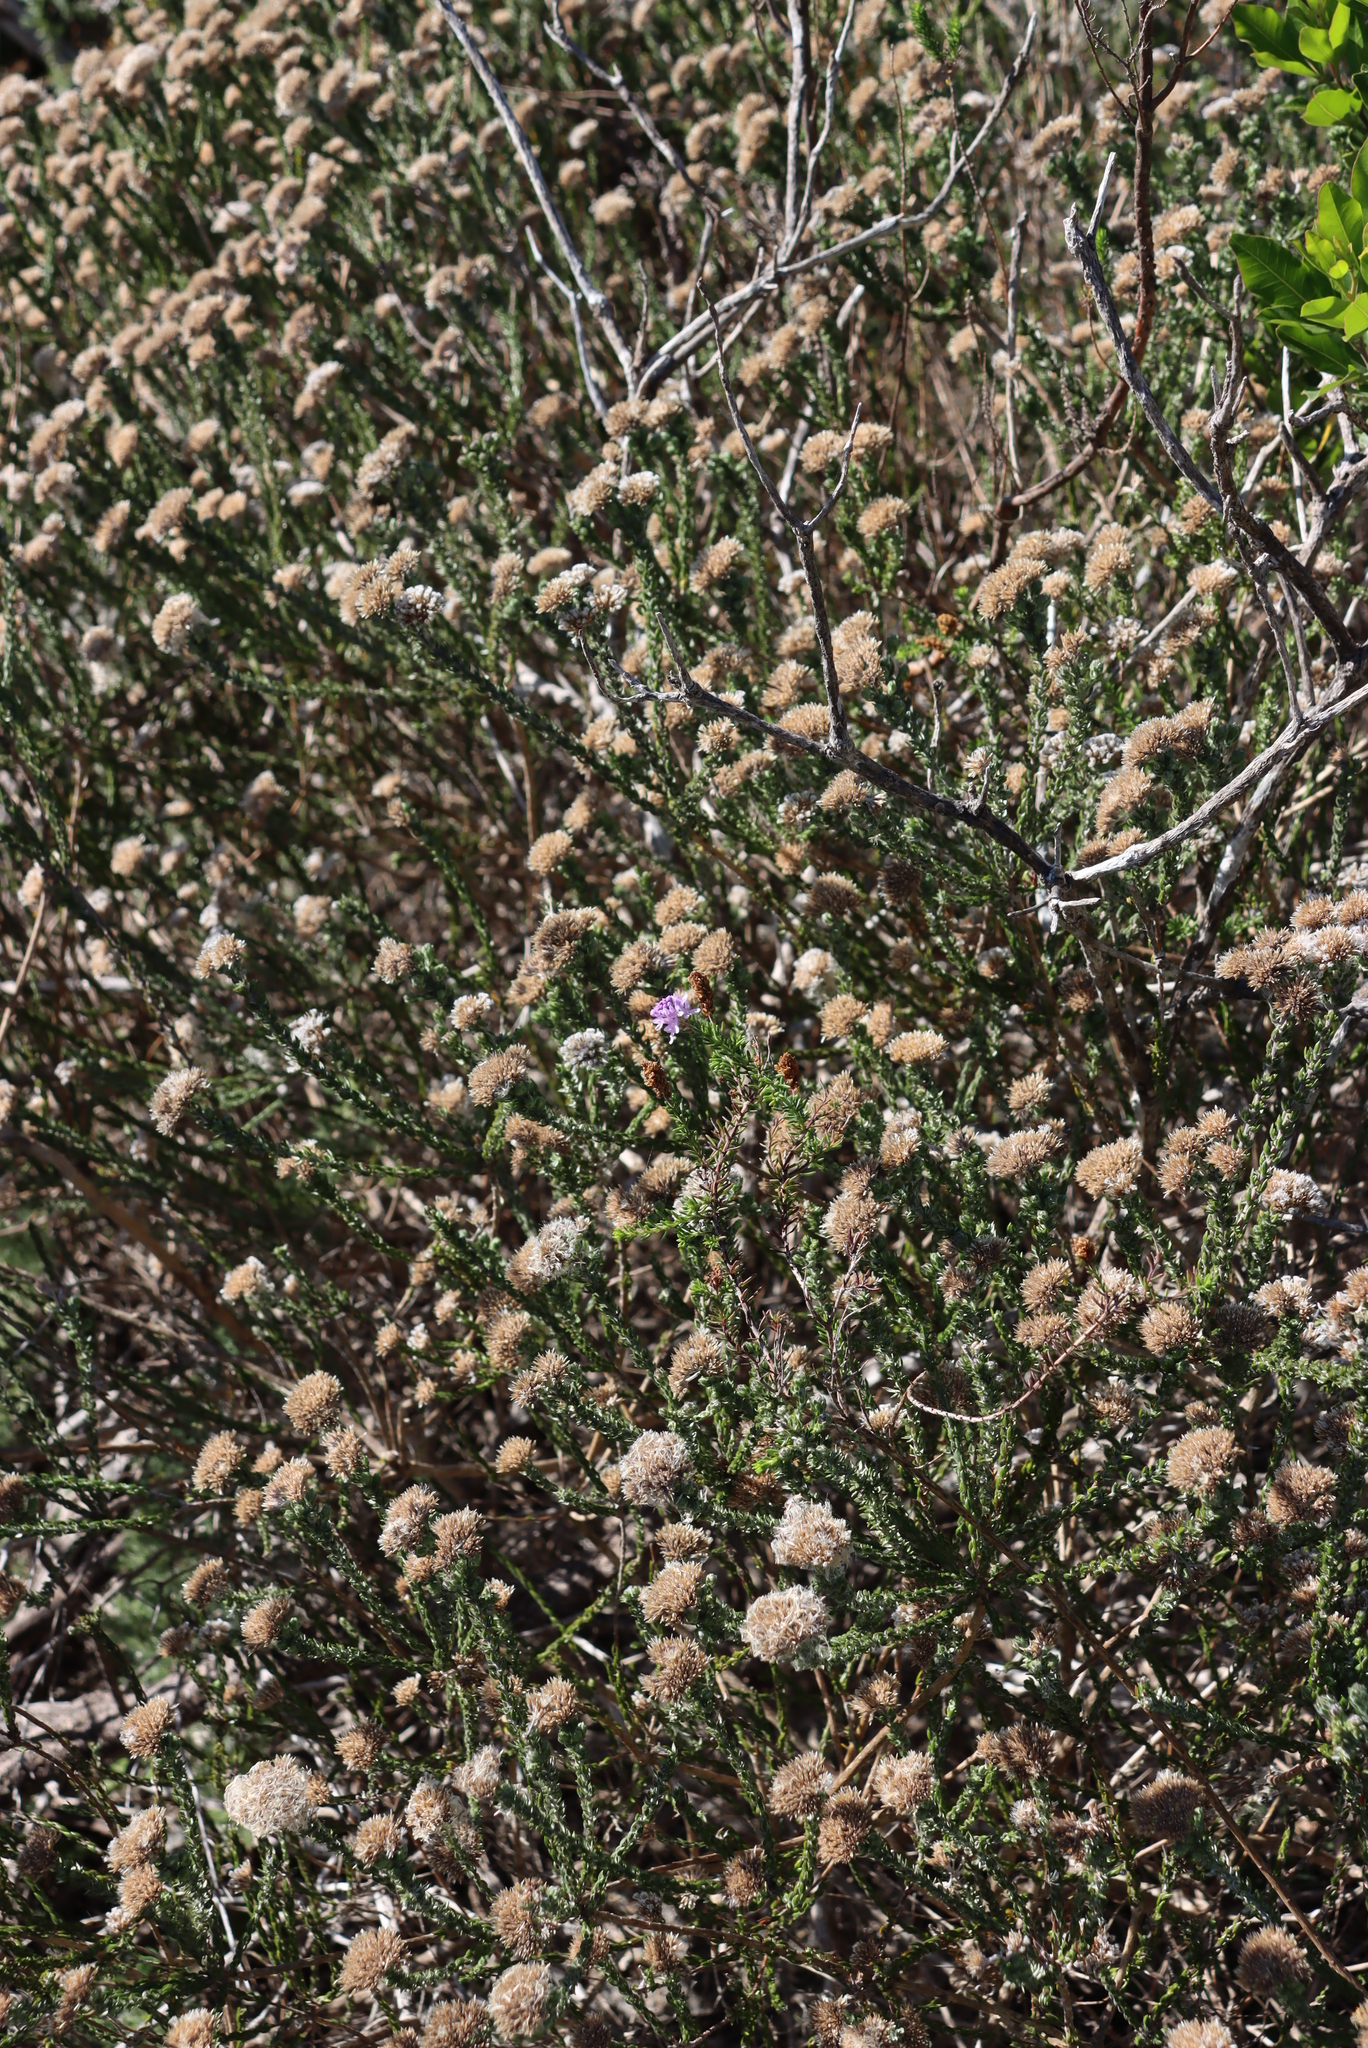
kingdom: Plantae
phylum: Tracheophyta
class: Magnoliopsida
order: Lamiales
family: Scrophulariaceae
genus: Selago
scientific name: Selago villicaulis
